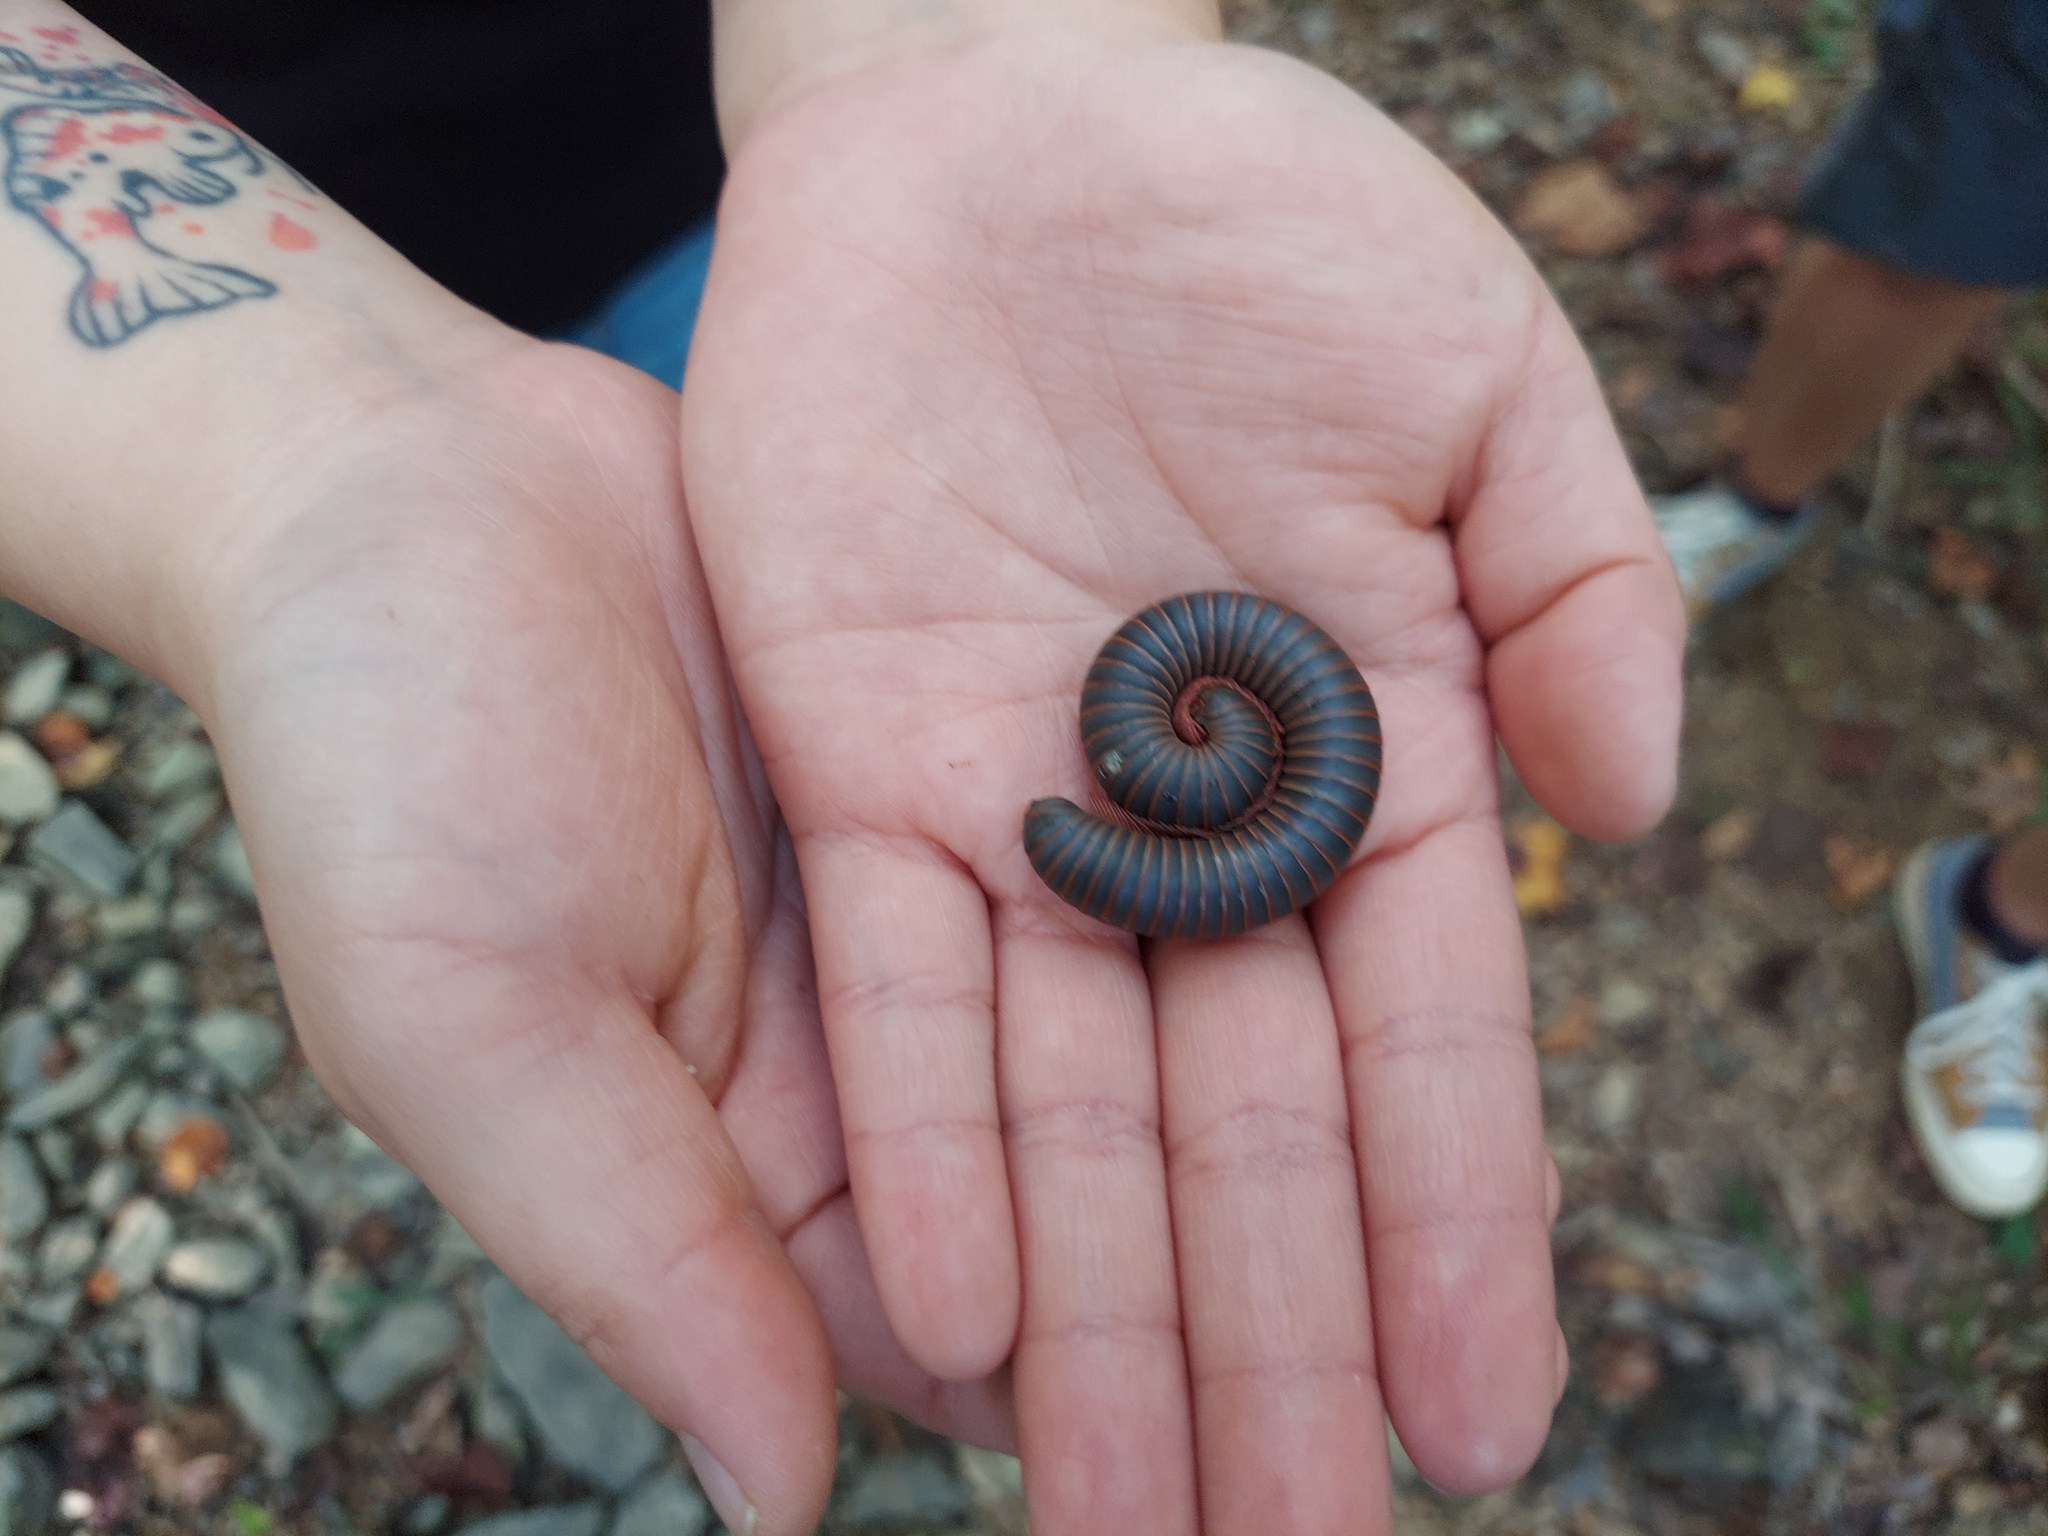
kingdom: Animalia
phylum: Arthropoda
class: Diplopoda
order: Spirobolida
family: Spirobolidae
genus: Narceus
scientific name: Narceus
